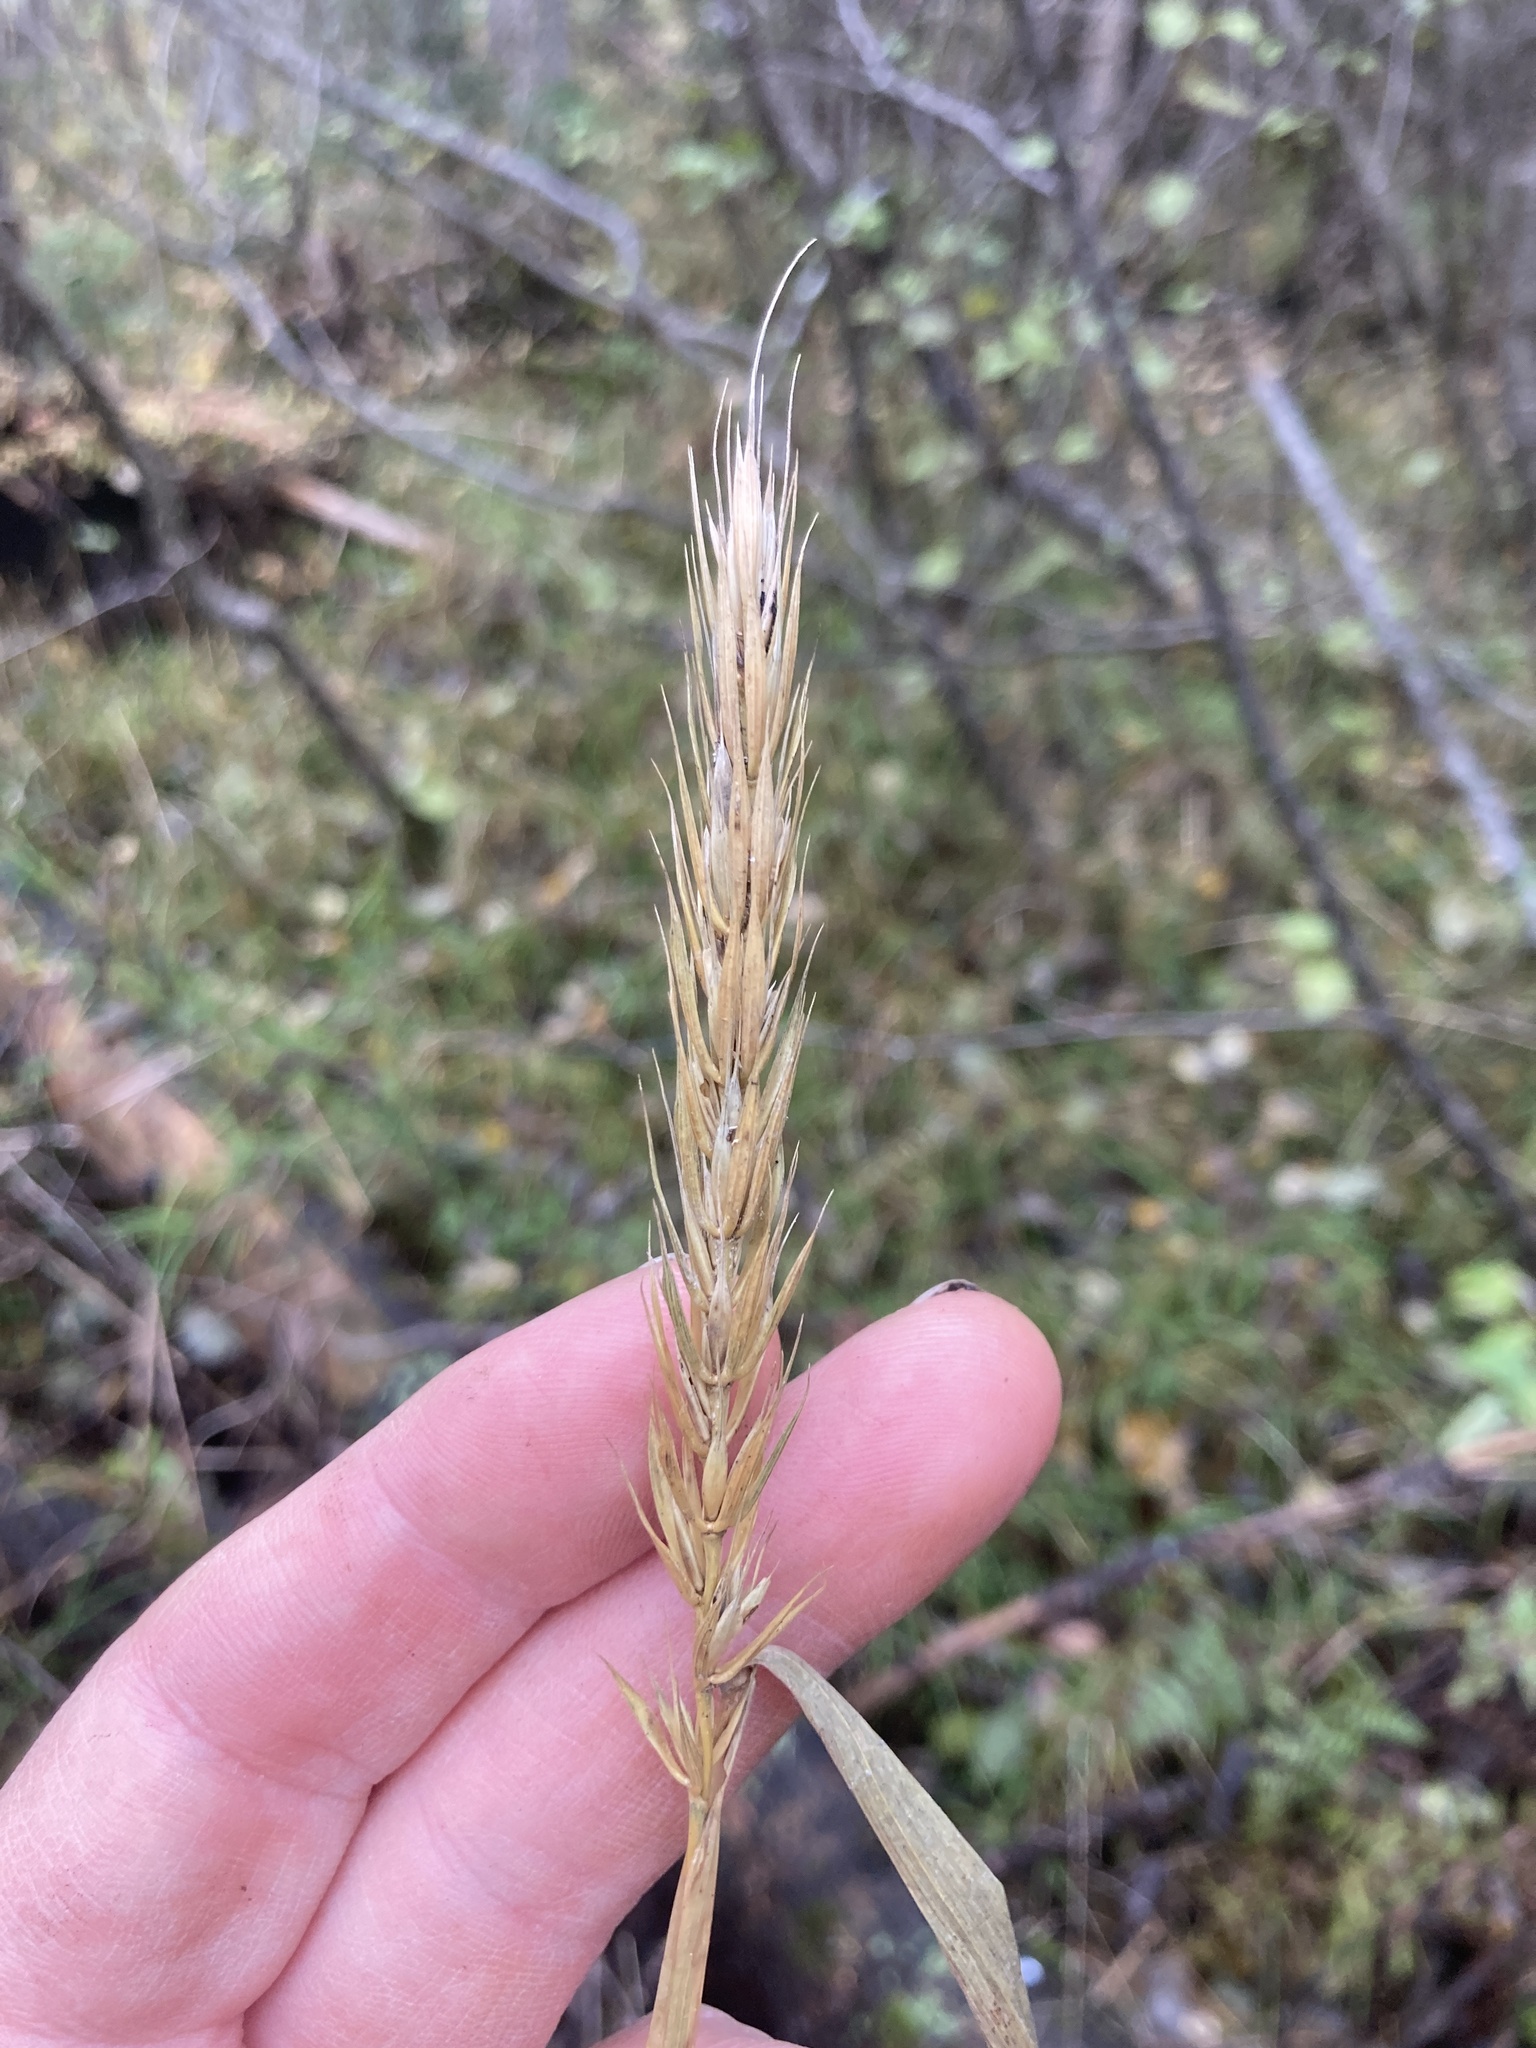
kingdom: Plantae
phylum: Tracheophyta
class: Liliopsida
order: Poales
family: Poaceae
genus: Elymus
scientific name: Elymus virginicus
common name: Common eastern wildrye
